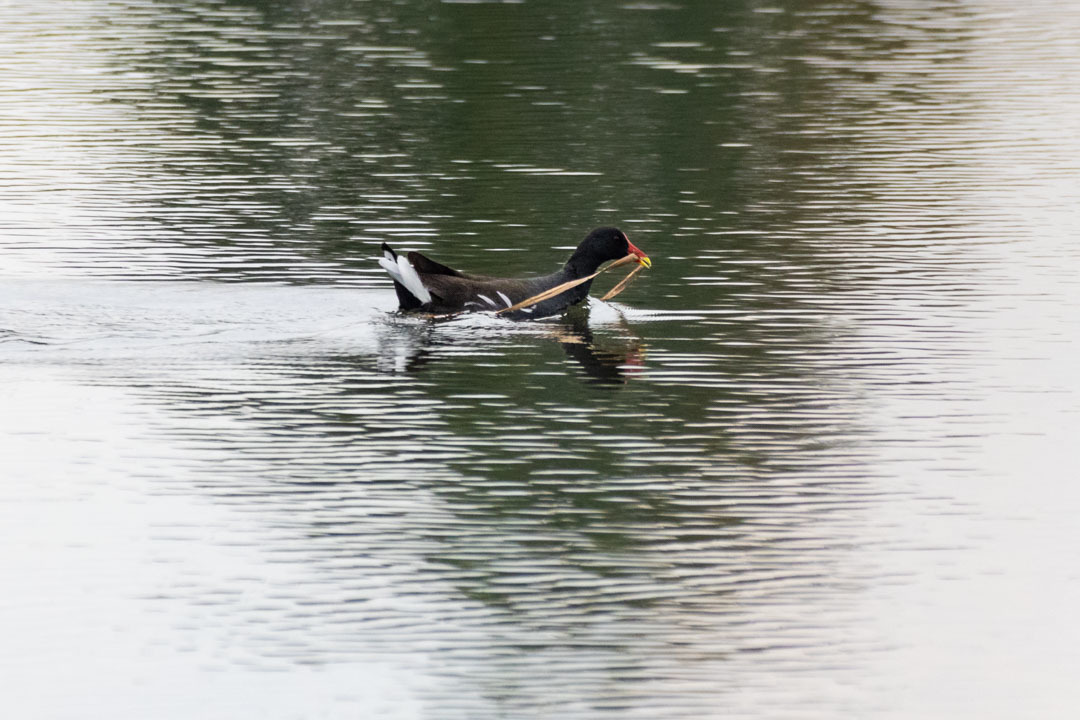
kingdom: Animalia
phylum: Chordata
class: Aves
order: Gruiformes
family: Rallidae
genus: Gallinula
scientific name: Gallinula chloropus
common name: Common moorhen
